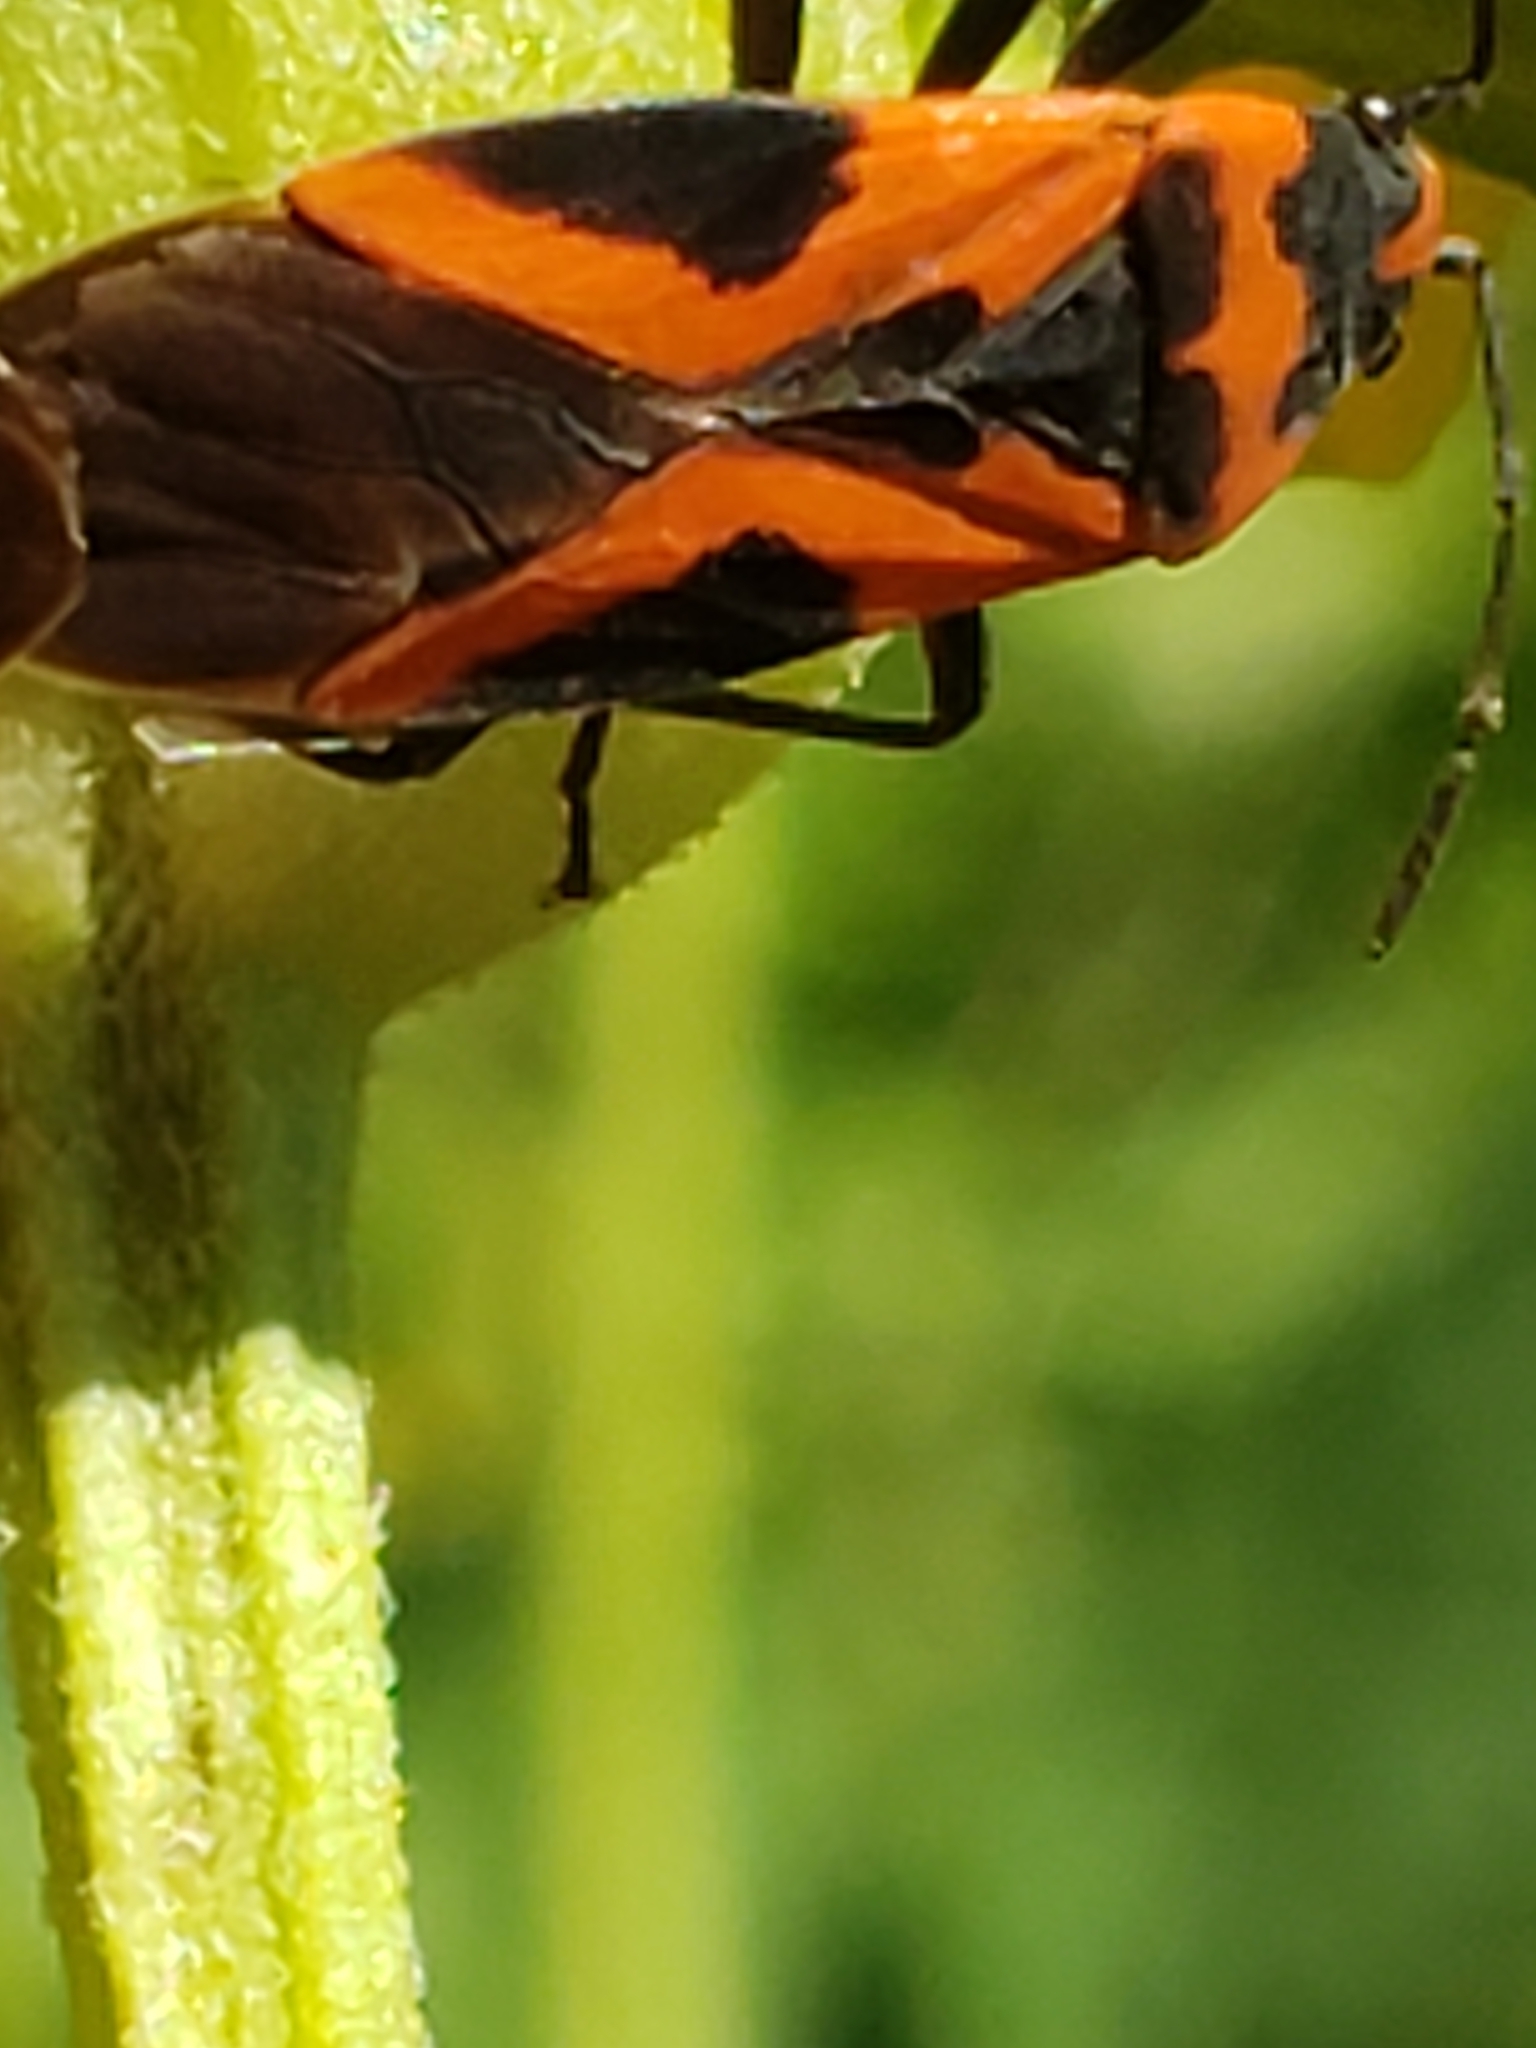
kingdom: Animalia
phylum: Arthropoda
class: Insecta
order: Hemiptera
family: Lygaeidae
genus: Lygaeus
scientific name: Lygaeus turcicus
